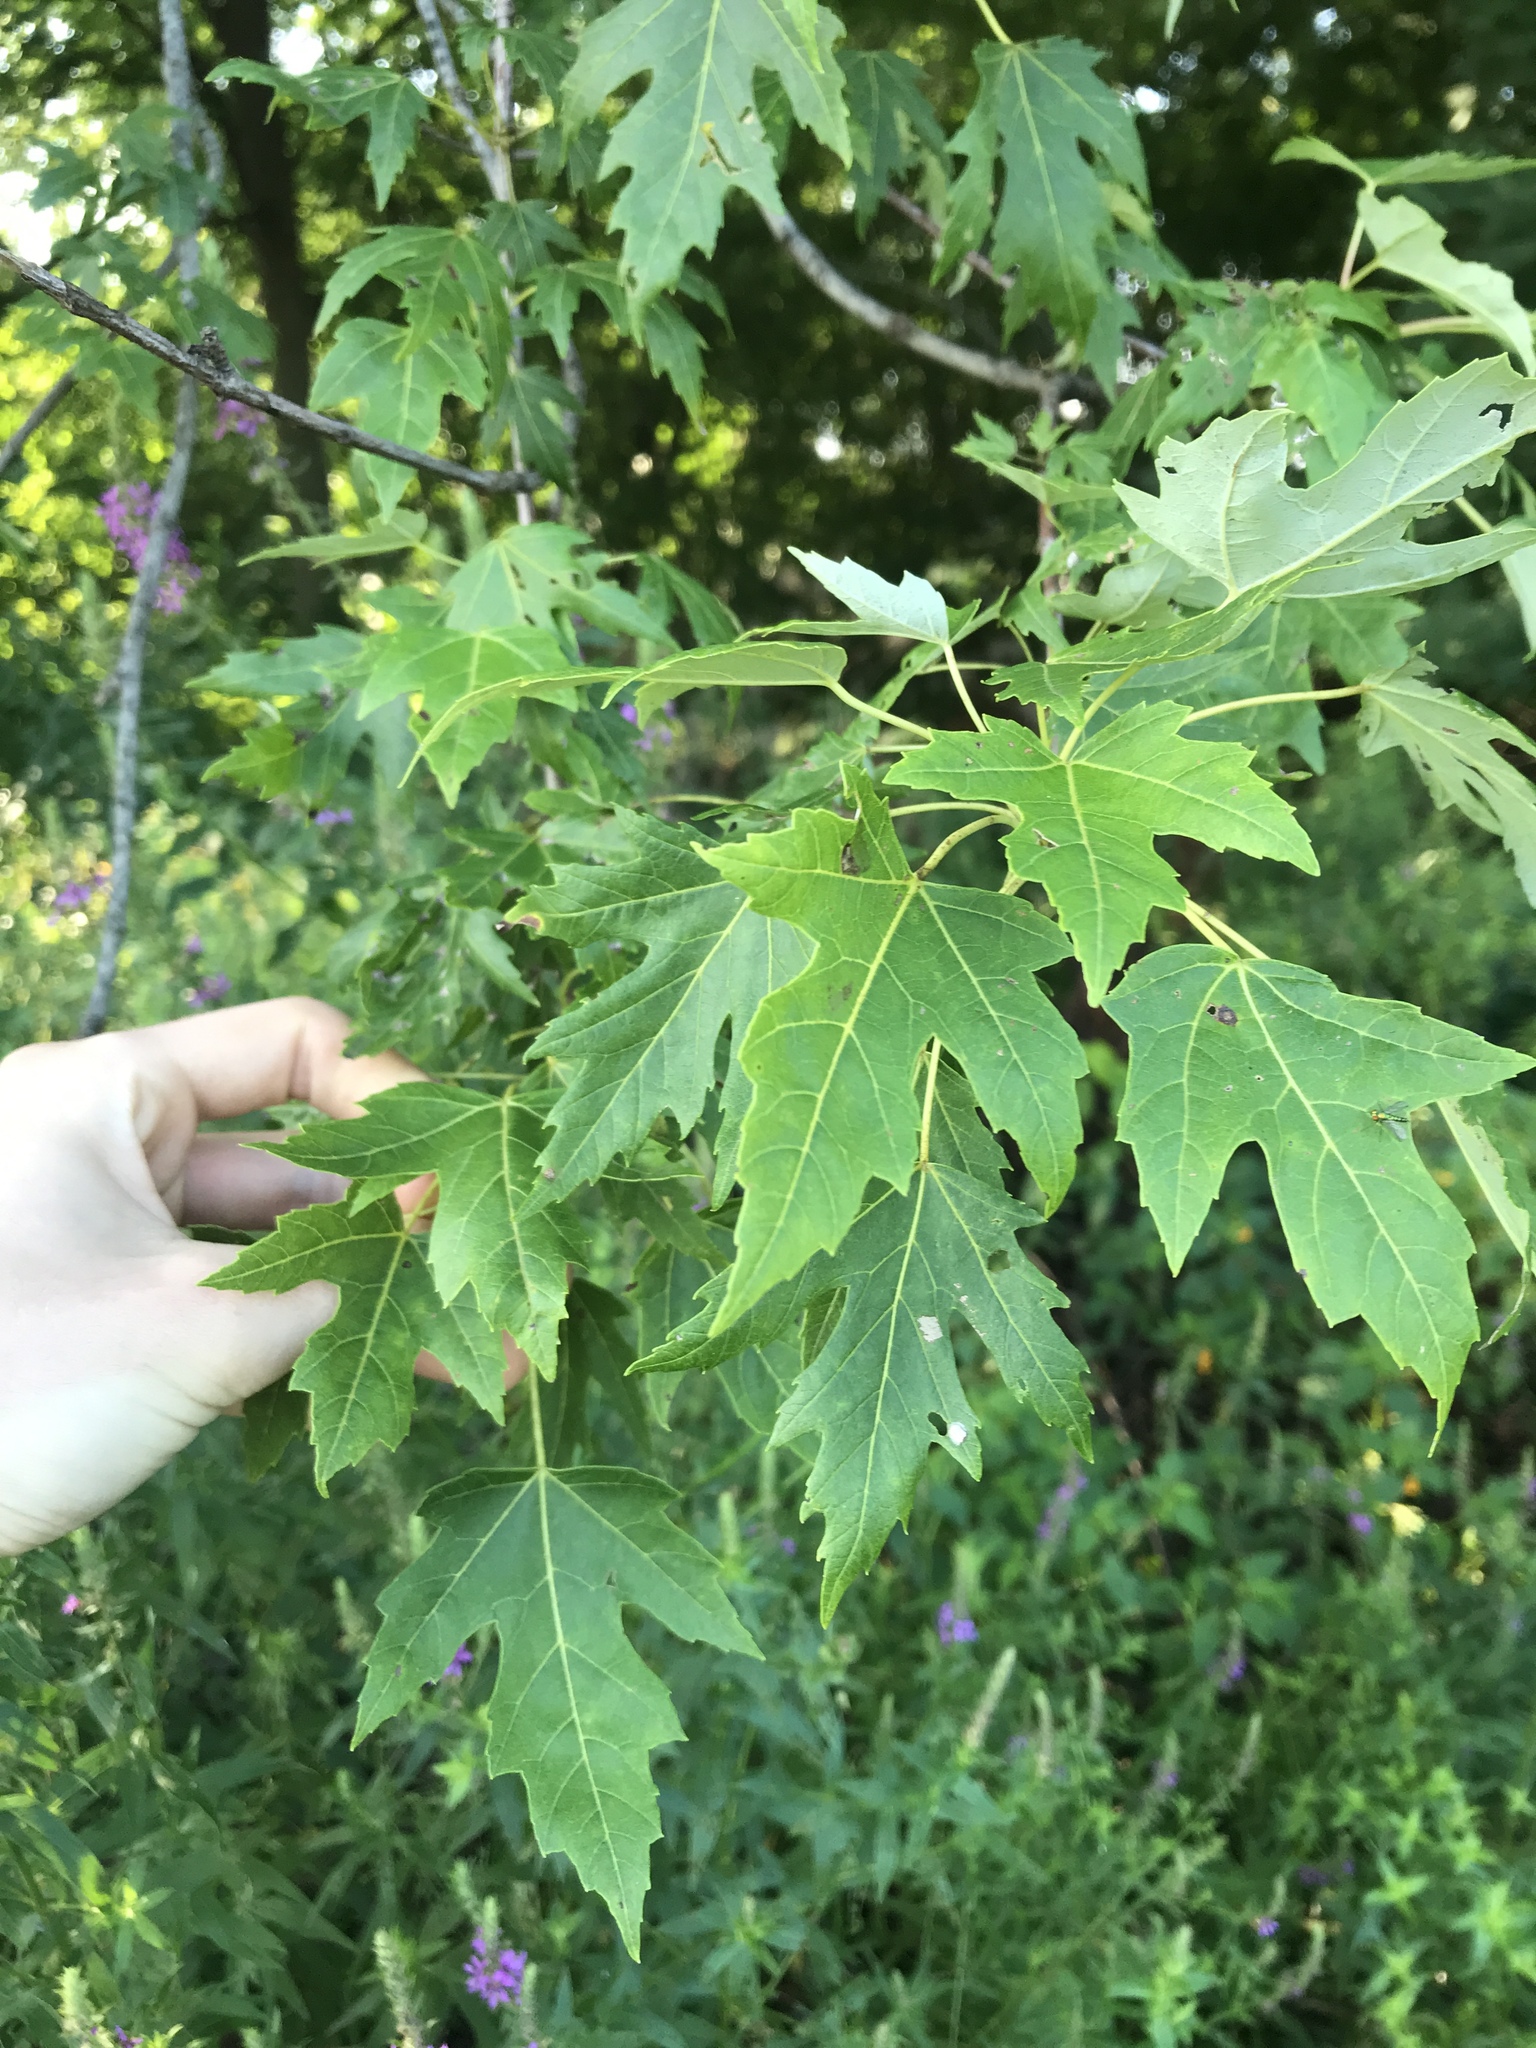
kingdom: Plantae
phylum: Tracheophyta
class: Magnoliopsida
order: Sapindales
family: Sapindaceae
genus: Acer
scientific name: Acer saccharinum
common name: Silver maple
